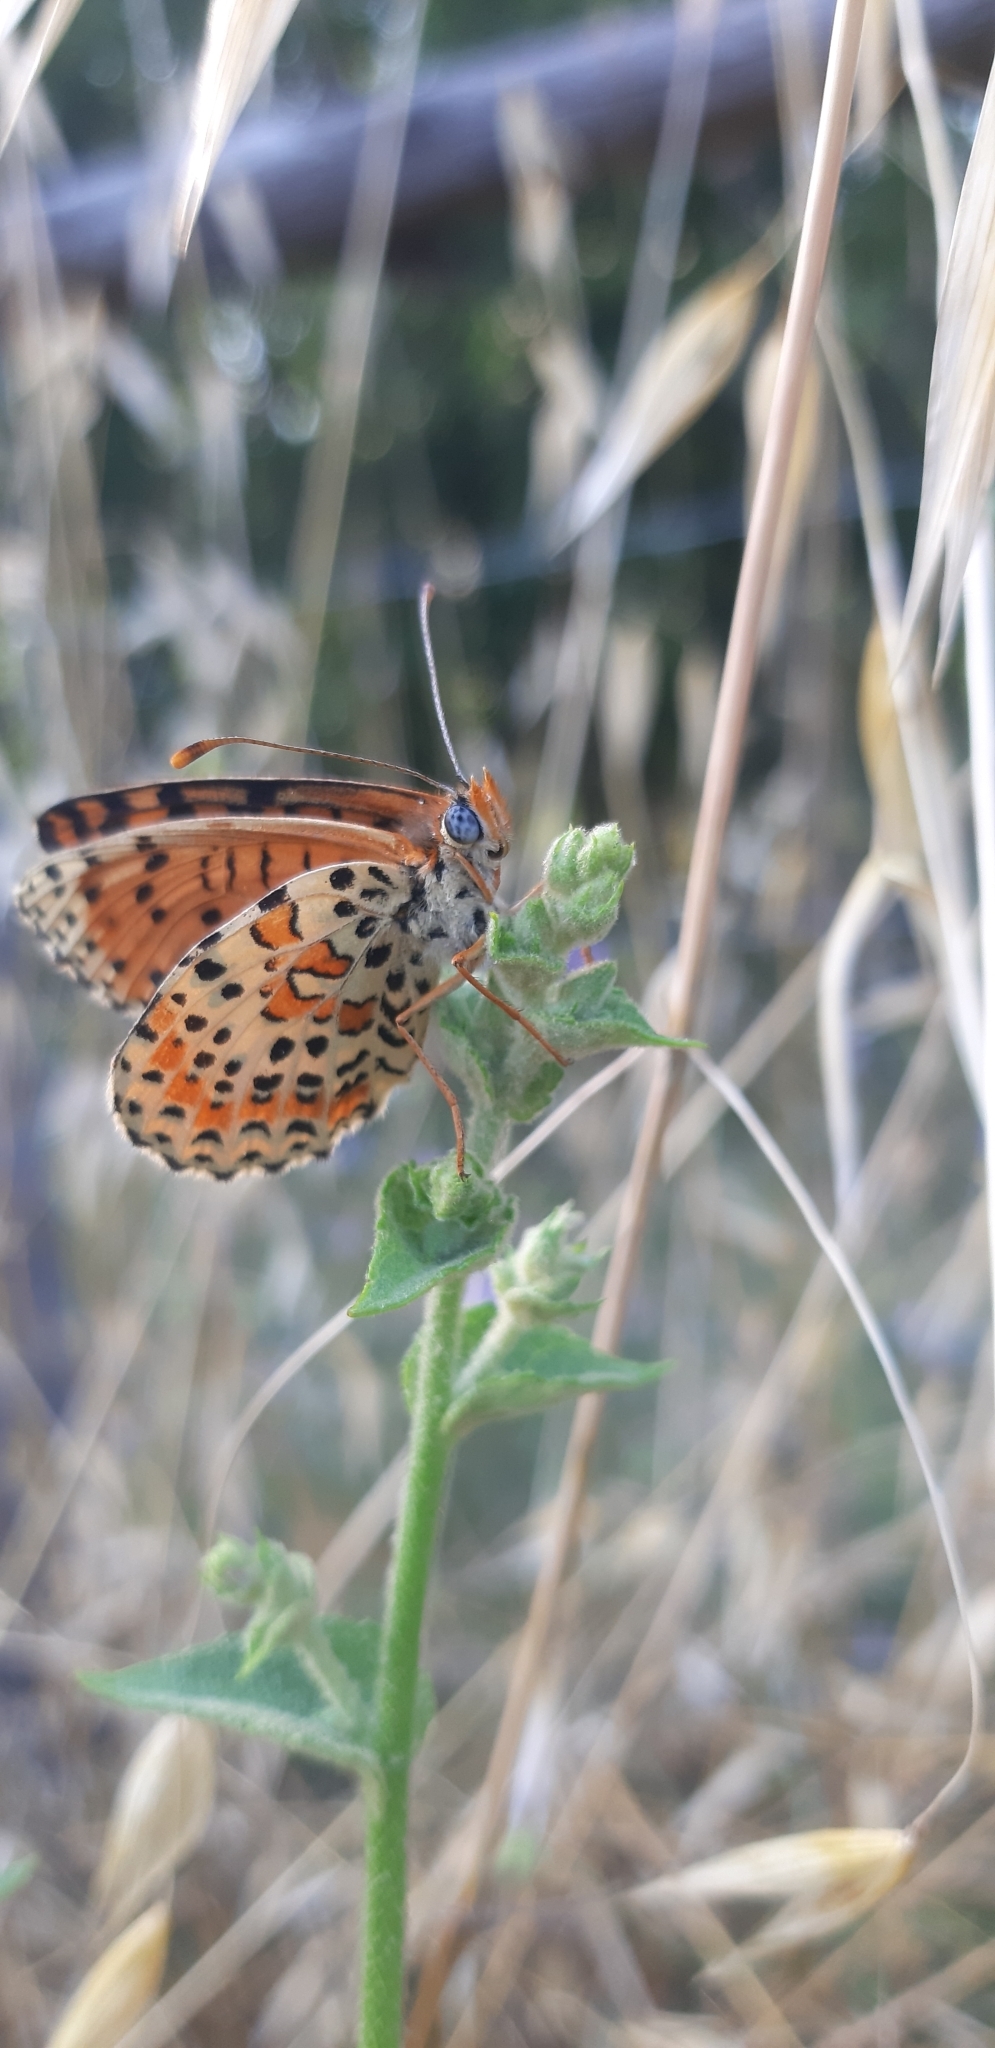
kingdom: Animalia
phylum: Arthropoda
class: Insecta
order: Lepidoptera
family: Nymphalidae
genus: Melitaea
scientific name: Melitaea didyma
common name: Spotted fritillary
